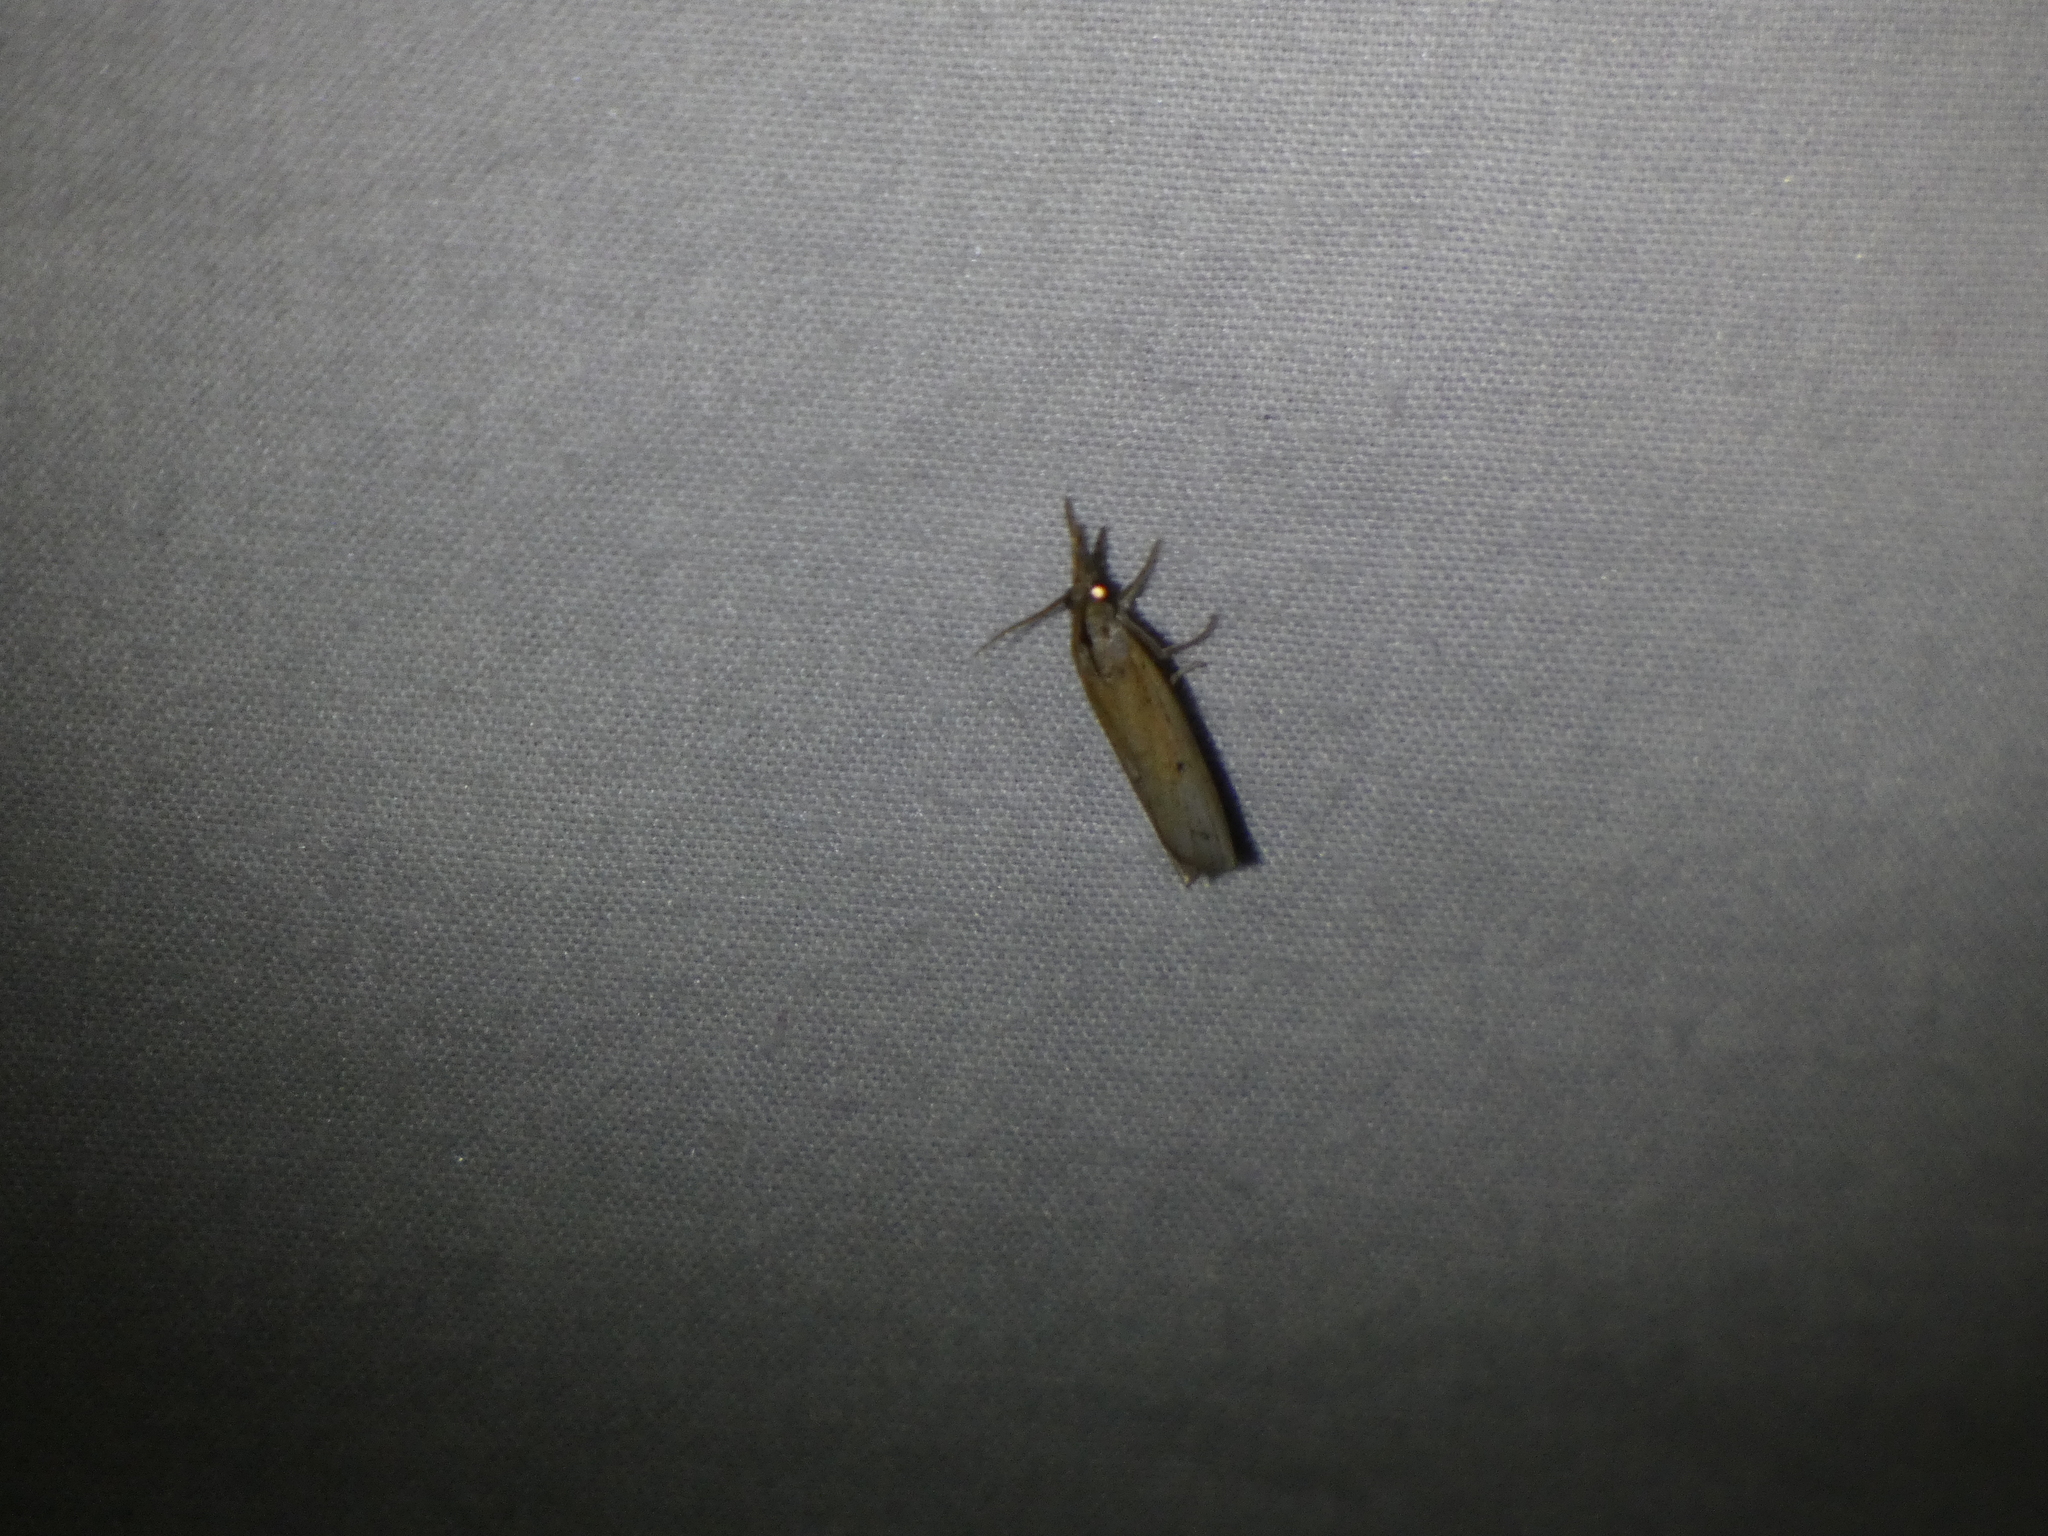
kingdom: Animalia
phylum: Arthropoda
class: Insecta
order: Lepidoptera
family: Crambidae
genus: Fissicrambus
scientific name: Fissicrambus mutabilis
